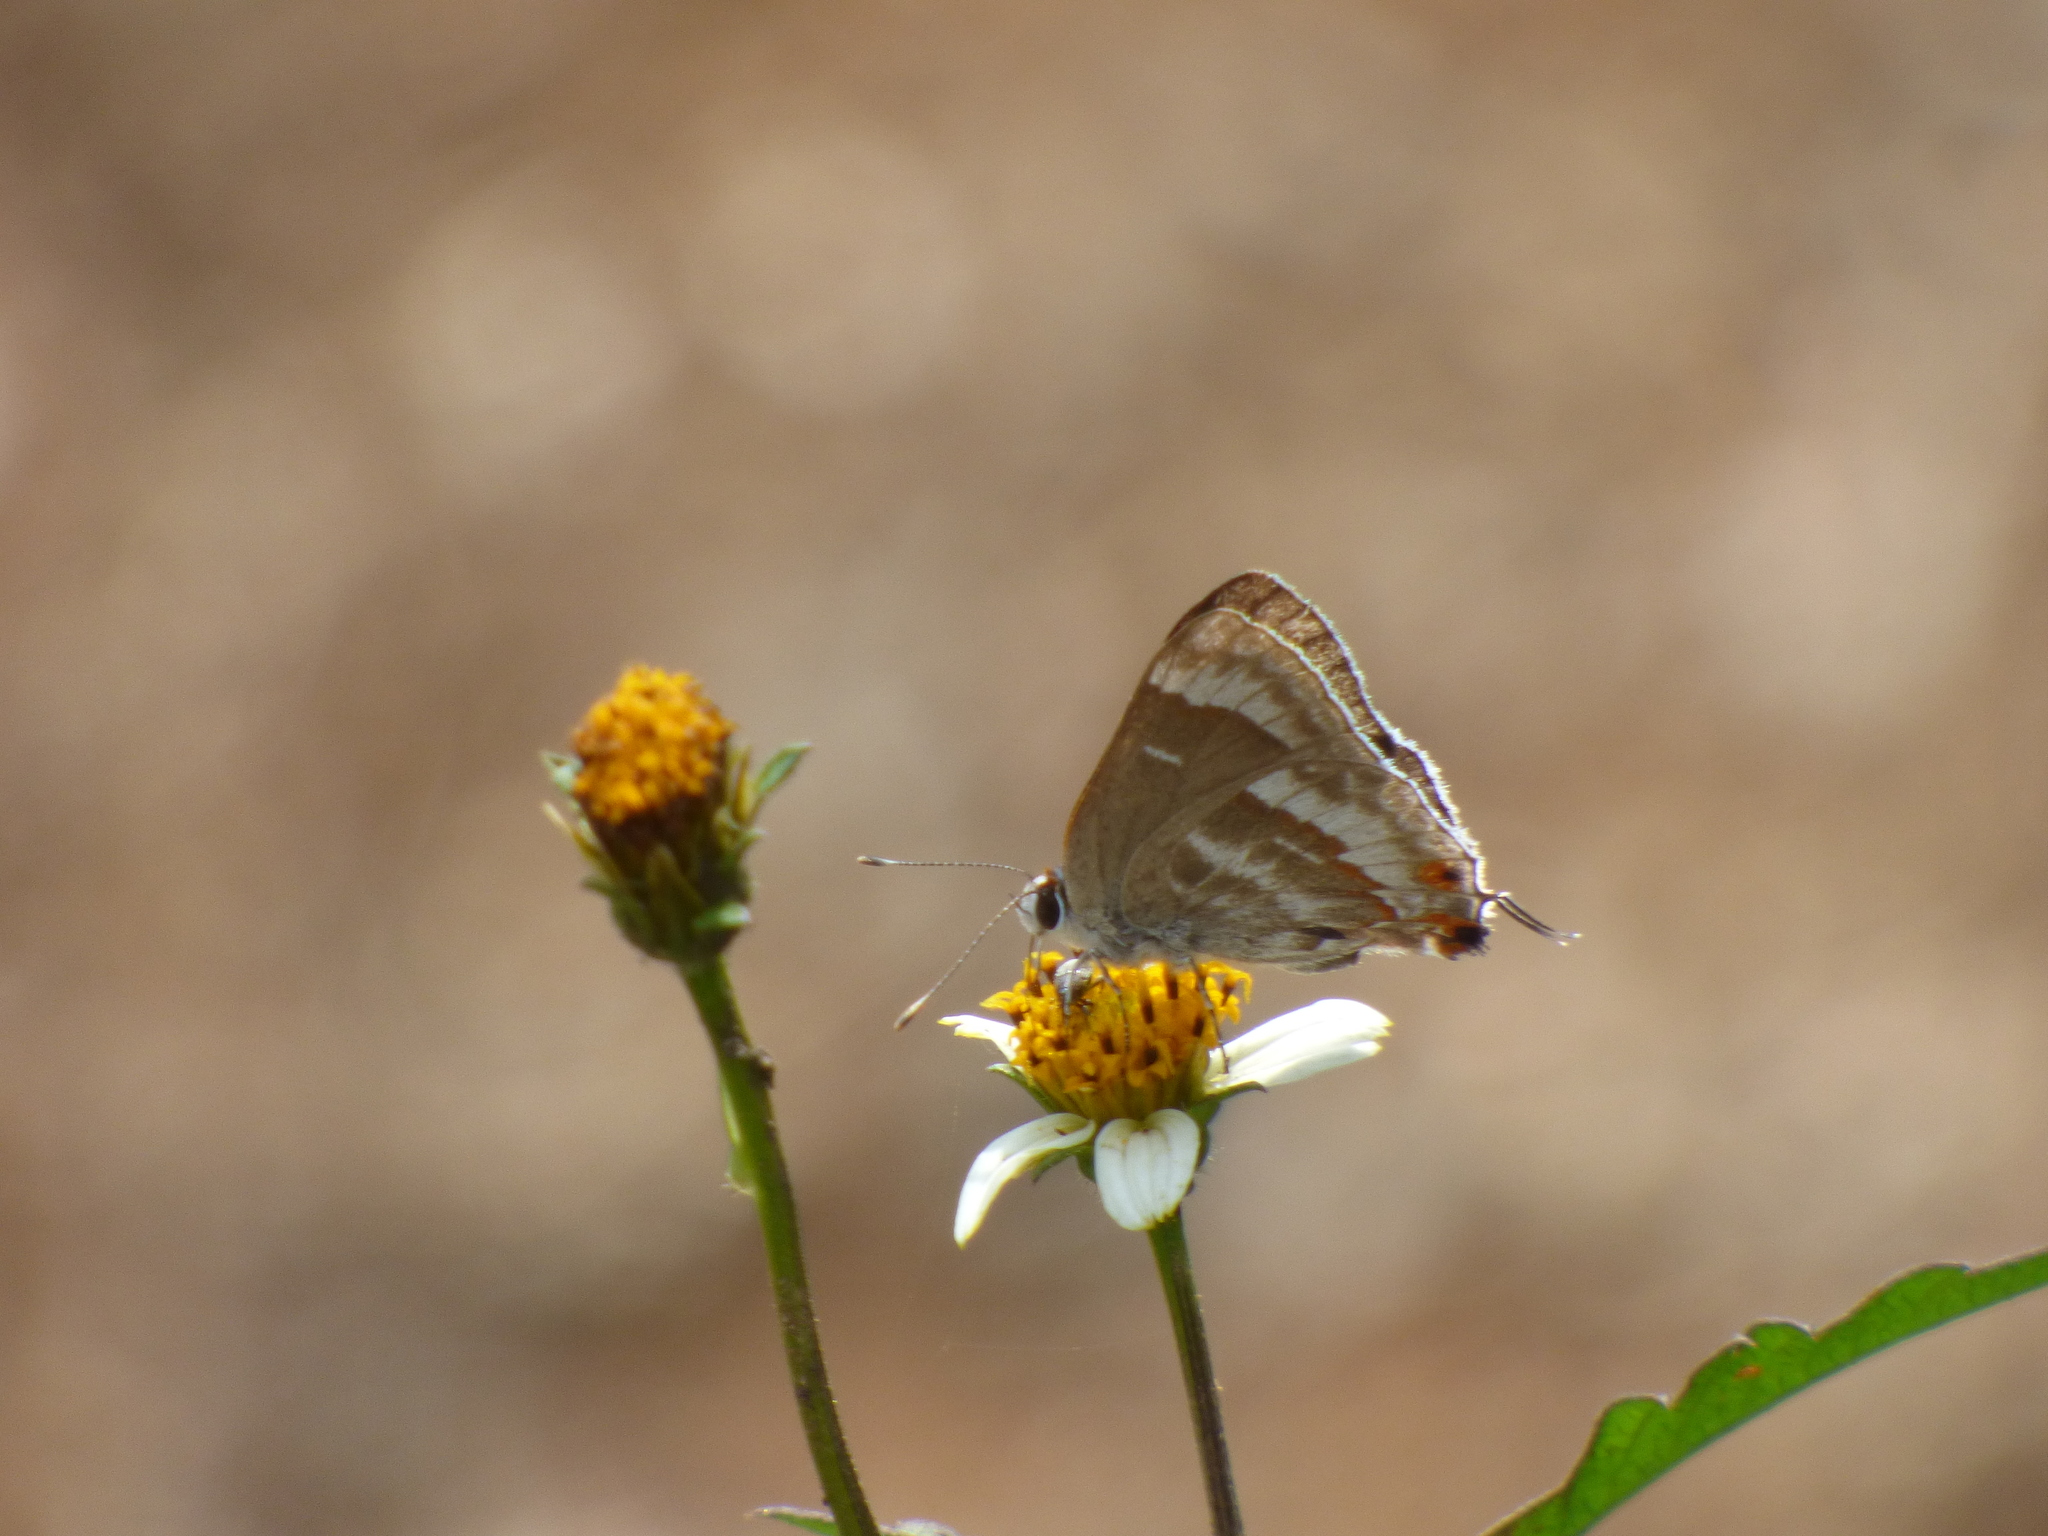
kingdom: Animalia
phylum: Arthropoda
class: Insecta
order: Lepidoptera
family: Lycaenidae
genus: Thecla
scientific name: Thecla yojoa
